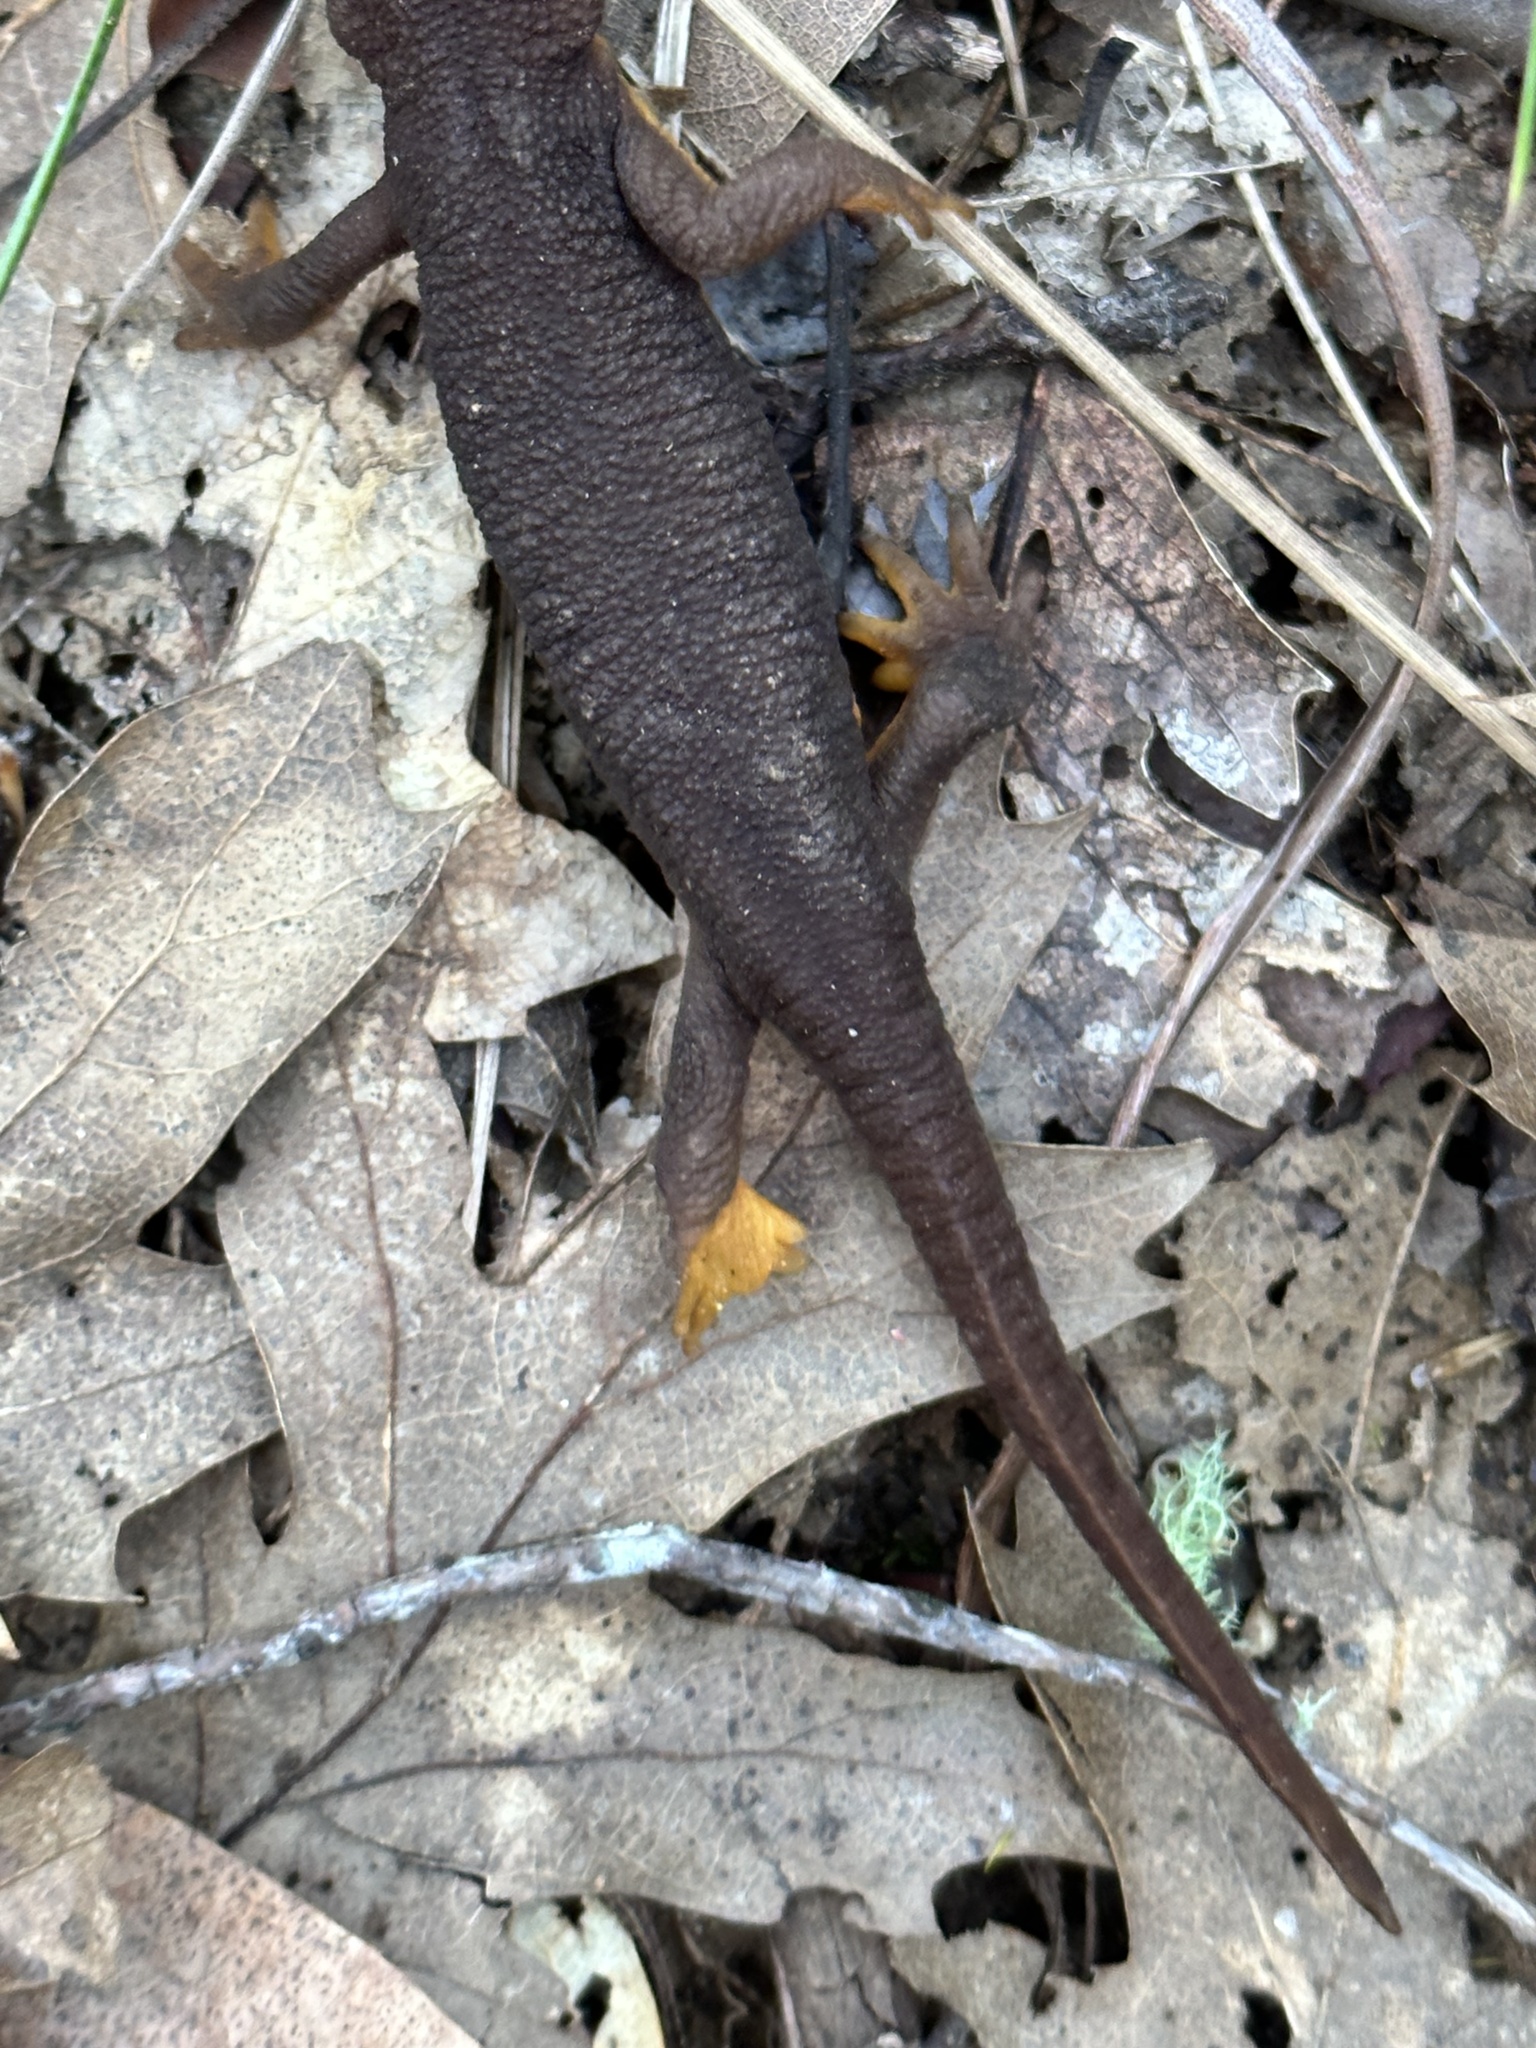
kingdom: Animalia
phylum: Chordata
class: Amphibia
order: Caudata
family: Salamandridae
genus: Taricha
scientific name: Taricha torosa
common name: California newt
